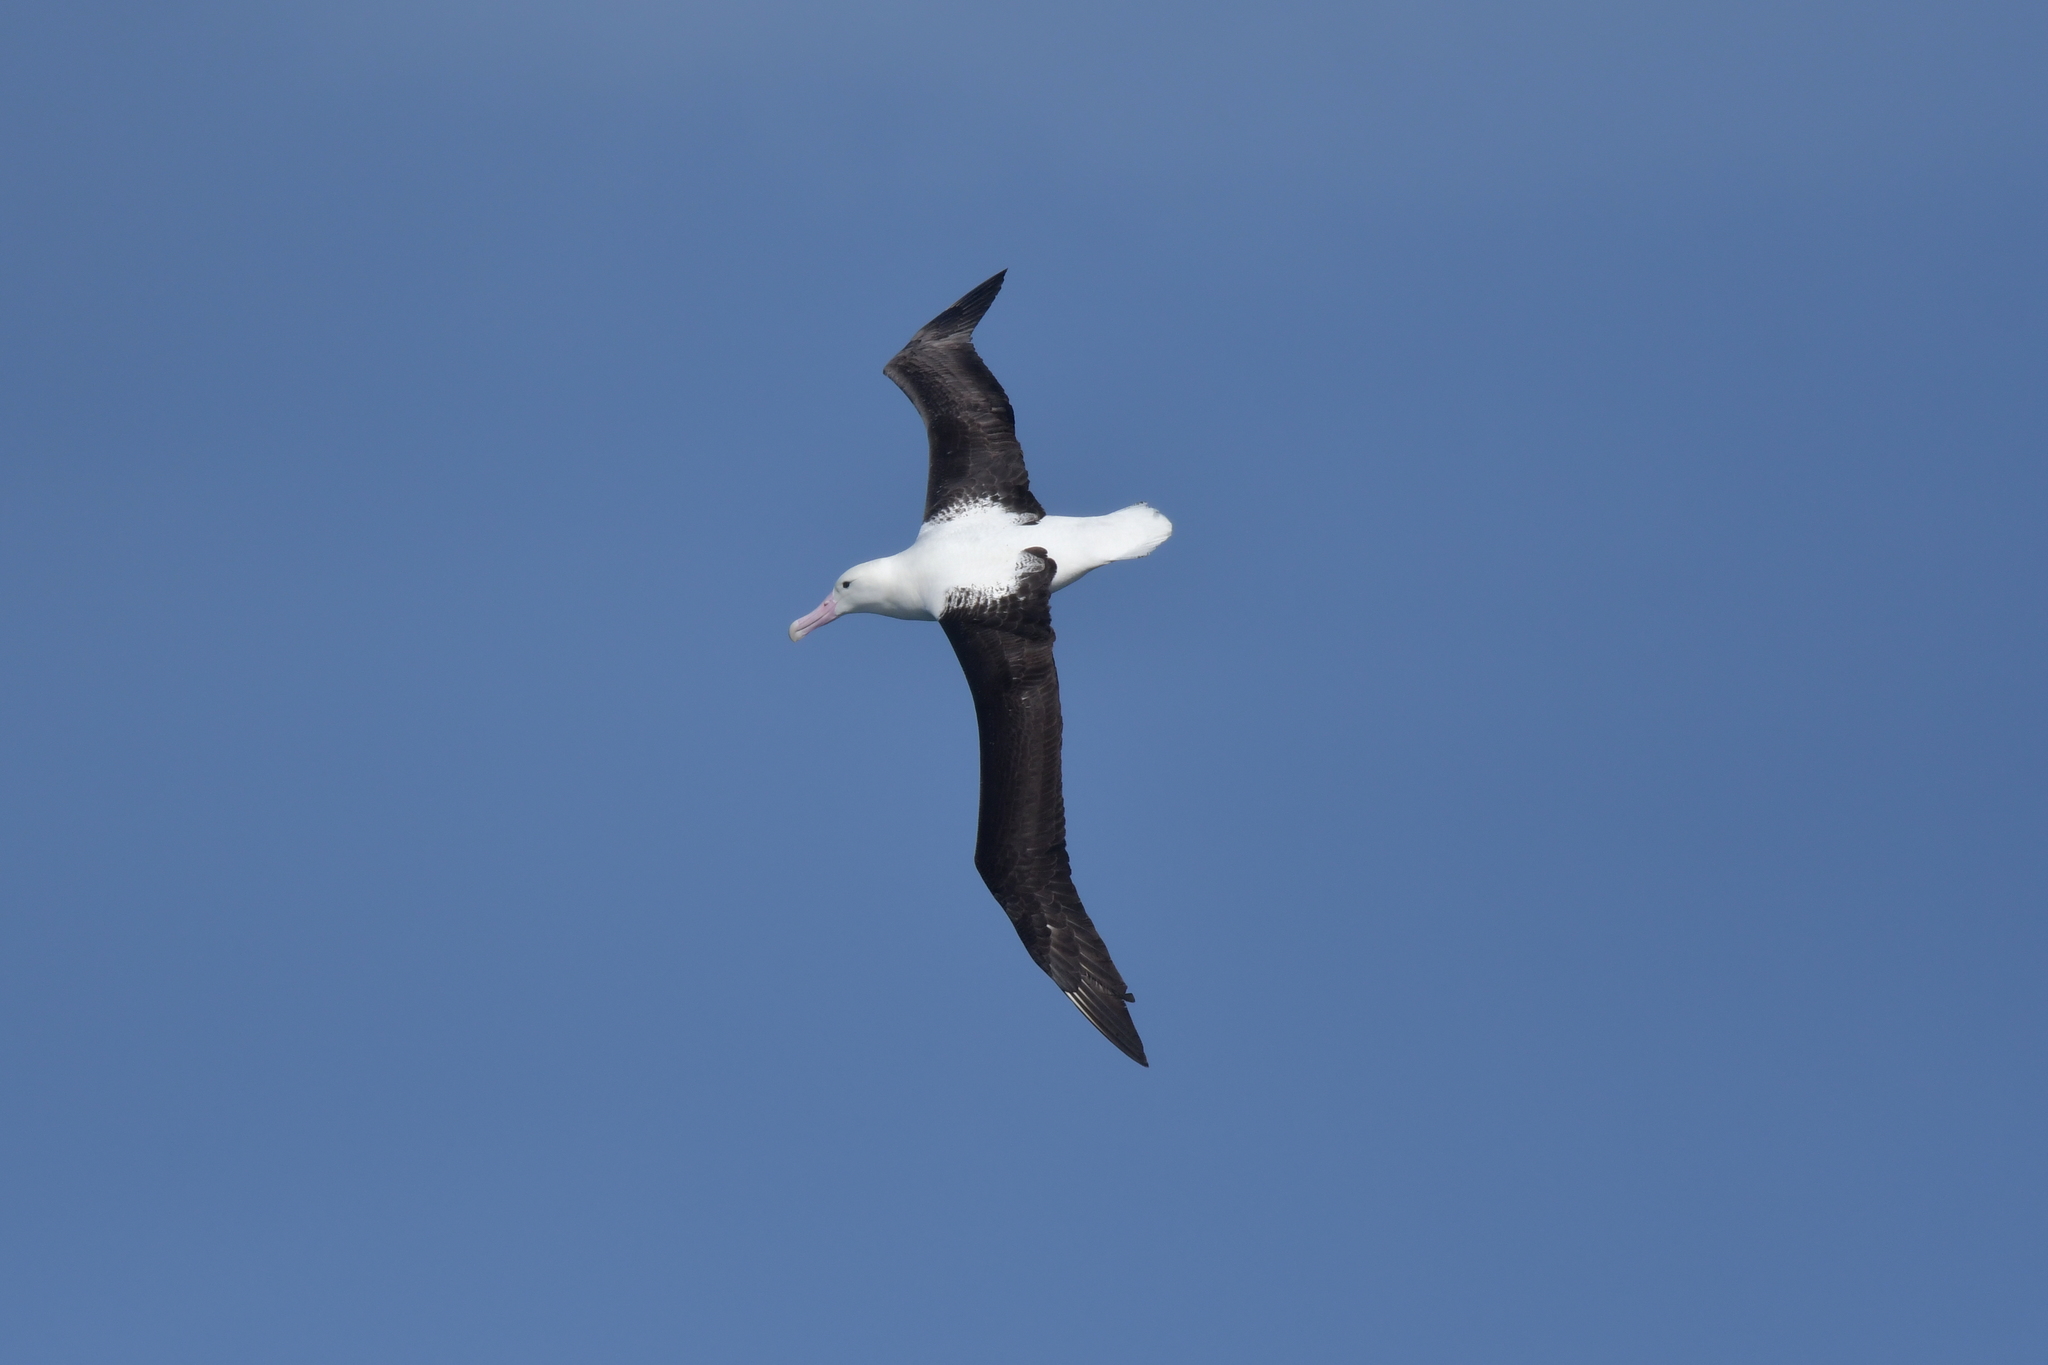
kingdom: Animalia
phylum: Chordata
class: Aves
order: Procellariiformes
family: Diomedeidae
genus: Diomedea
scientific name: Diomedea sanfordi
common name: Northern royal albatross
